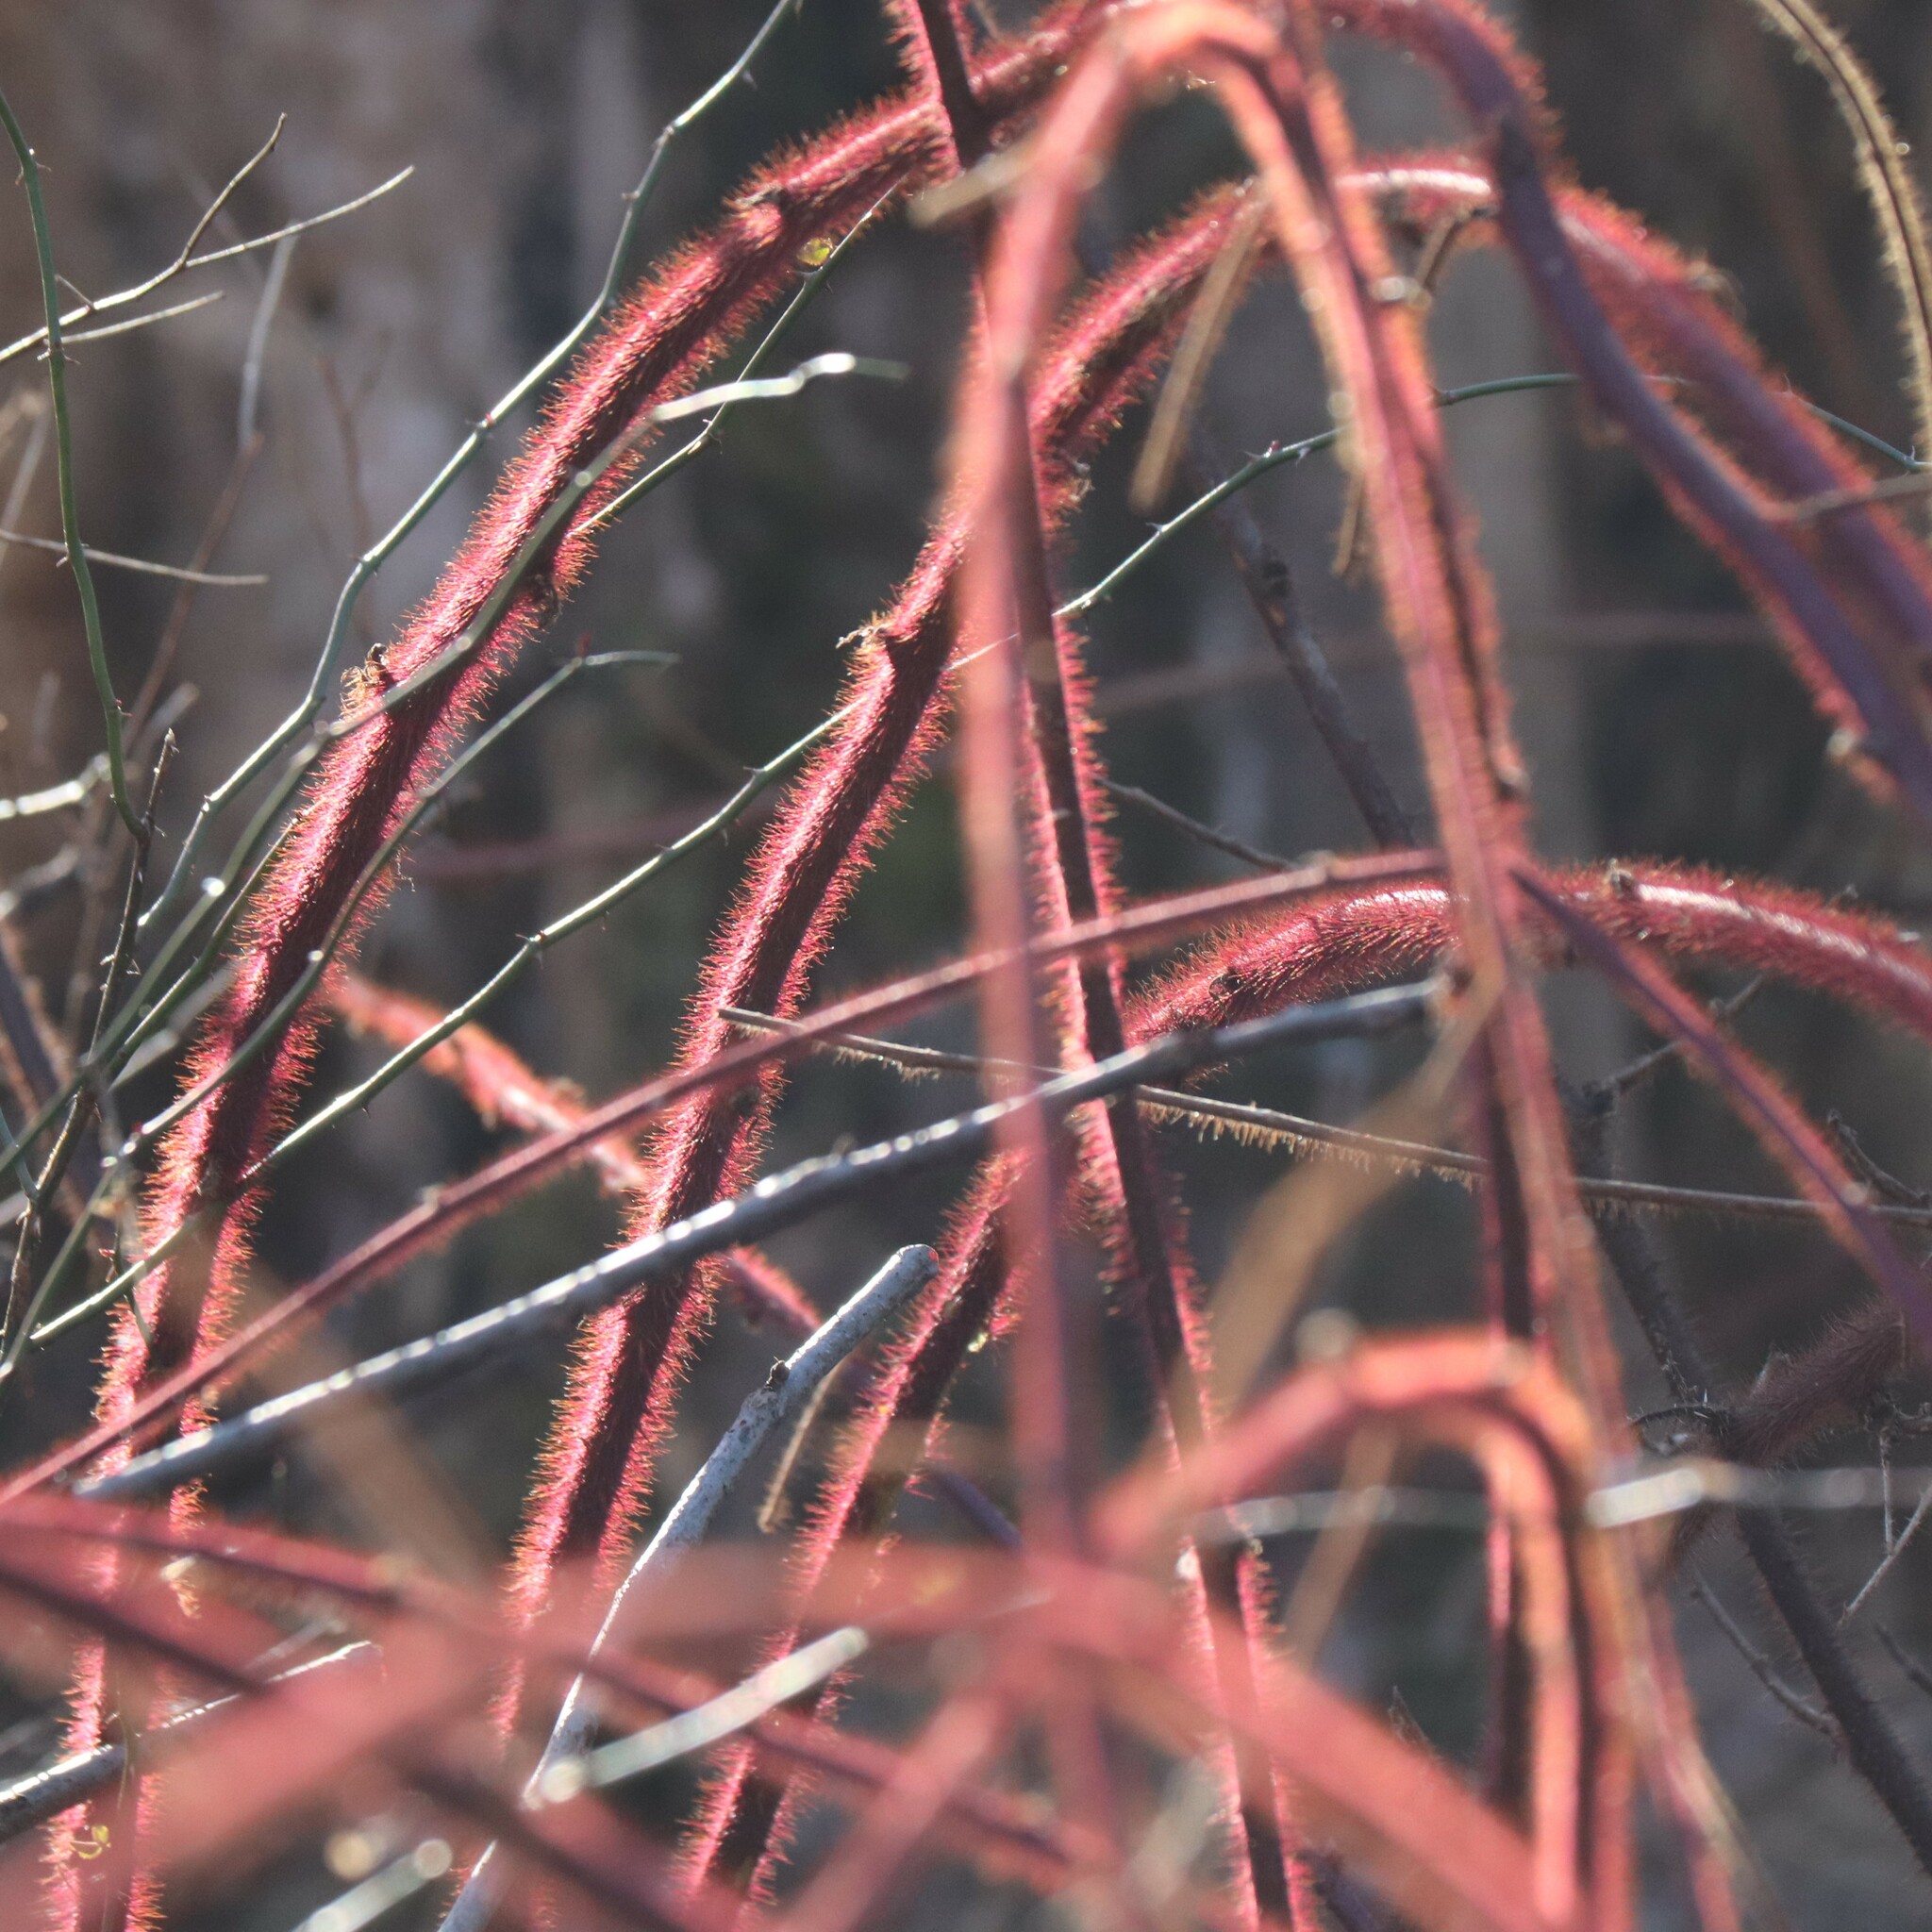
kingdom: Plantae
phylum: Tracheophyta
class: Magnoliopsida
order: Rosales
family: Rosaceae
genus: Rubus
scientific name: Rubus phoenicolasius
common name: Japanese wineberry
